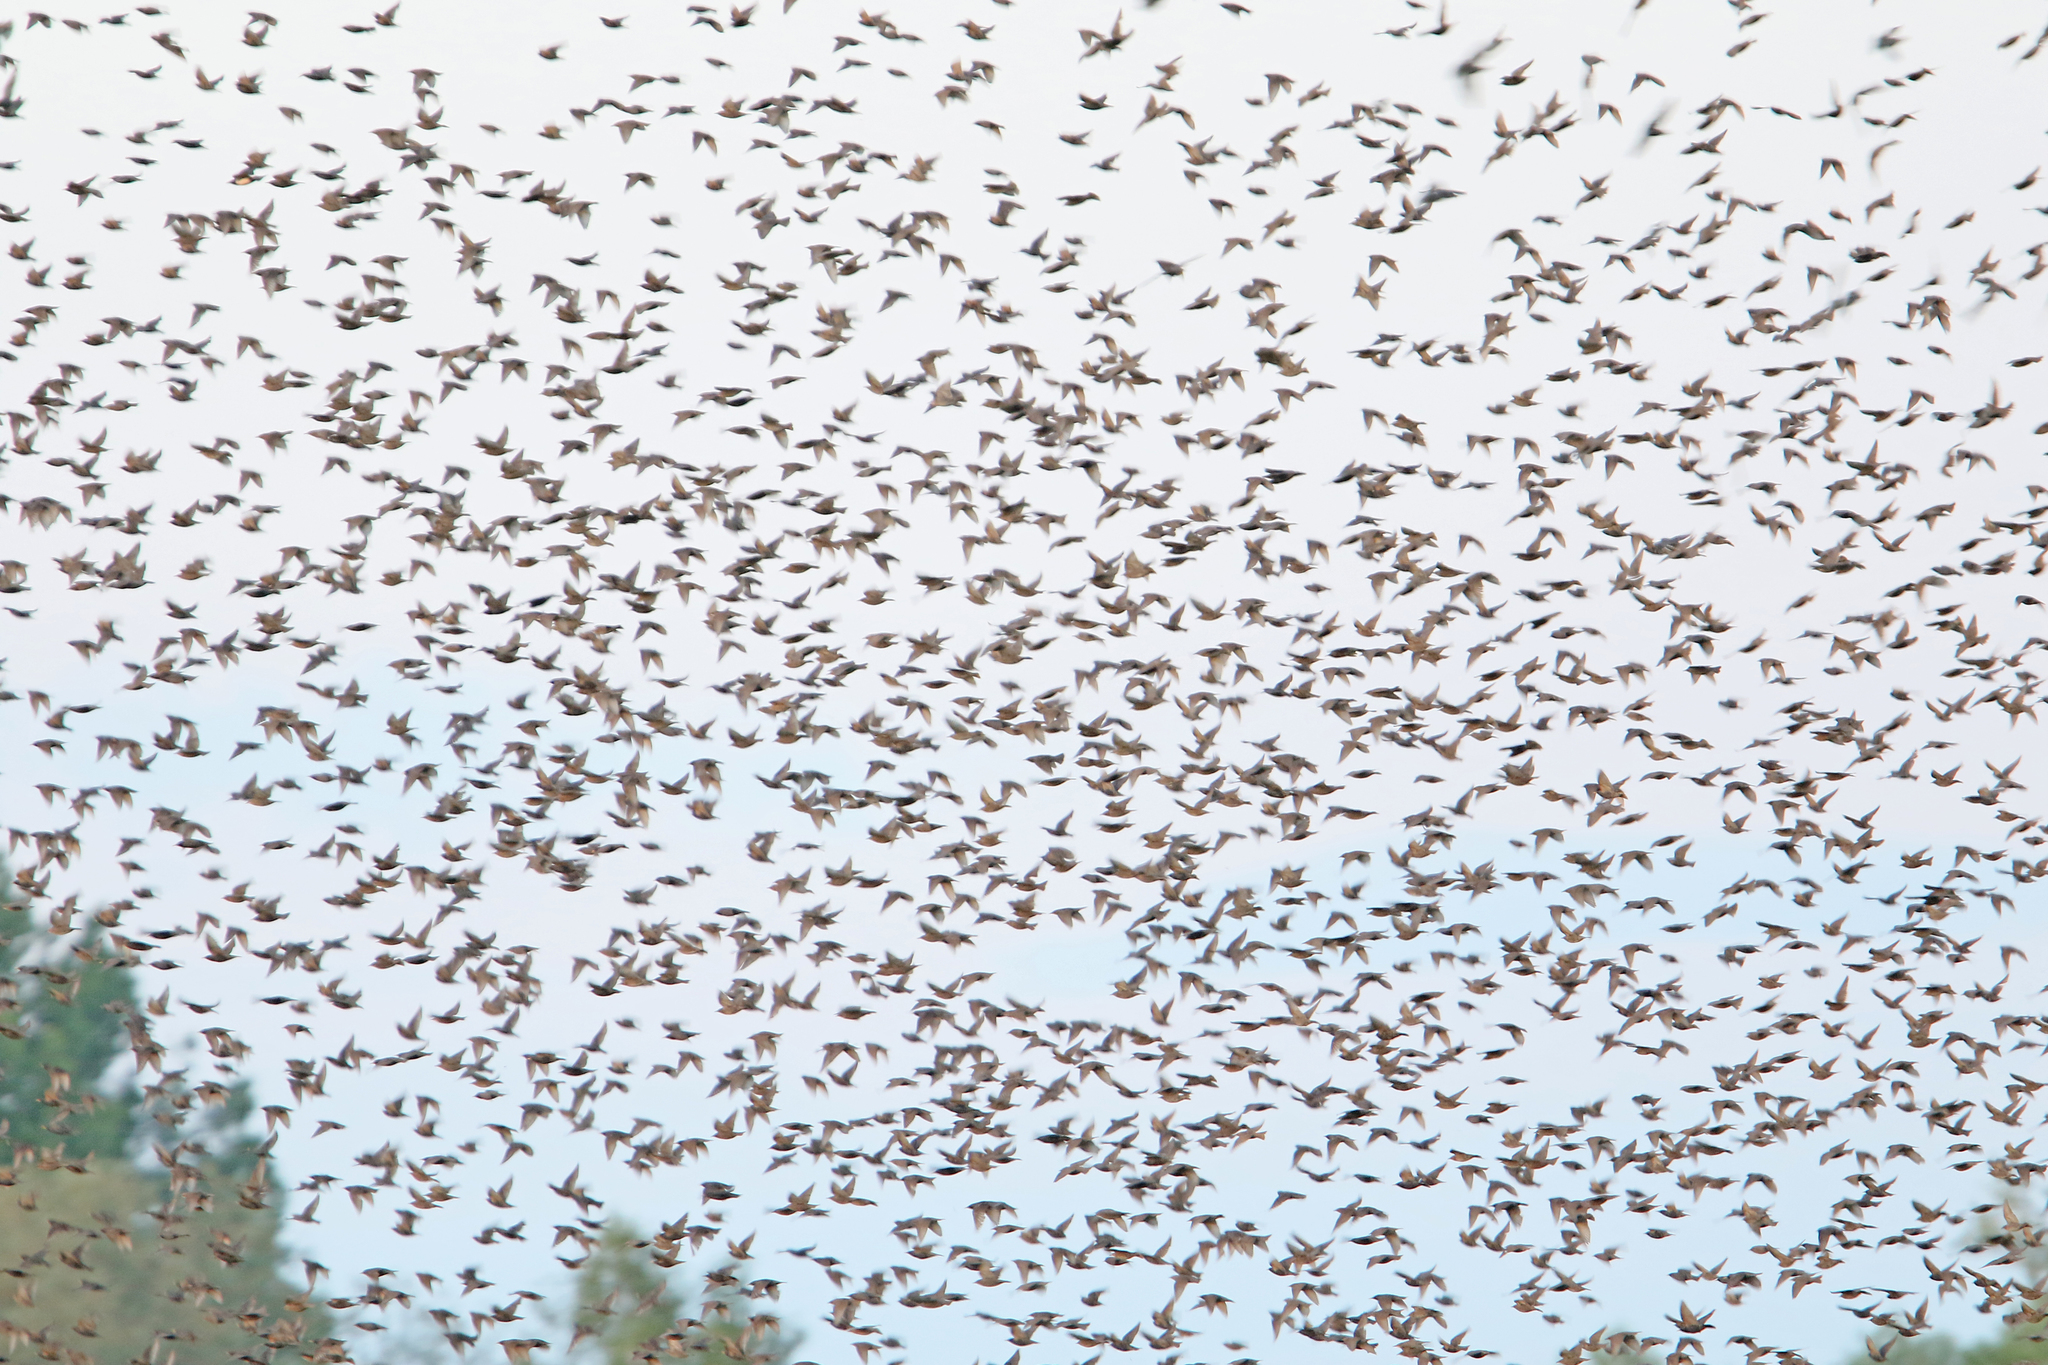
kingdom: Animalia
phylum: Chordata
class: Aves
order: Passeriformes
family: Sturnidae
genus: Sturnus
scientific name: Sturnus vulgaris
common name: Common starling
